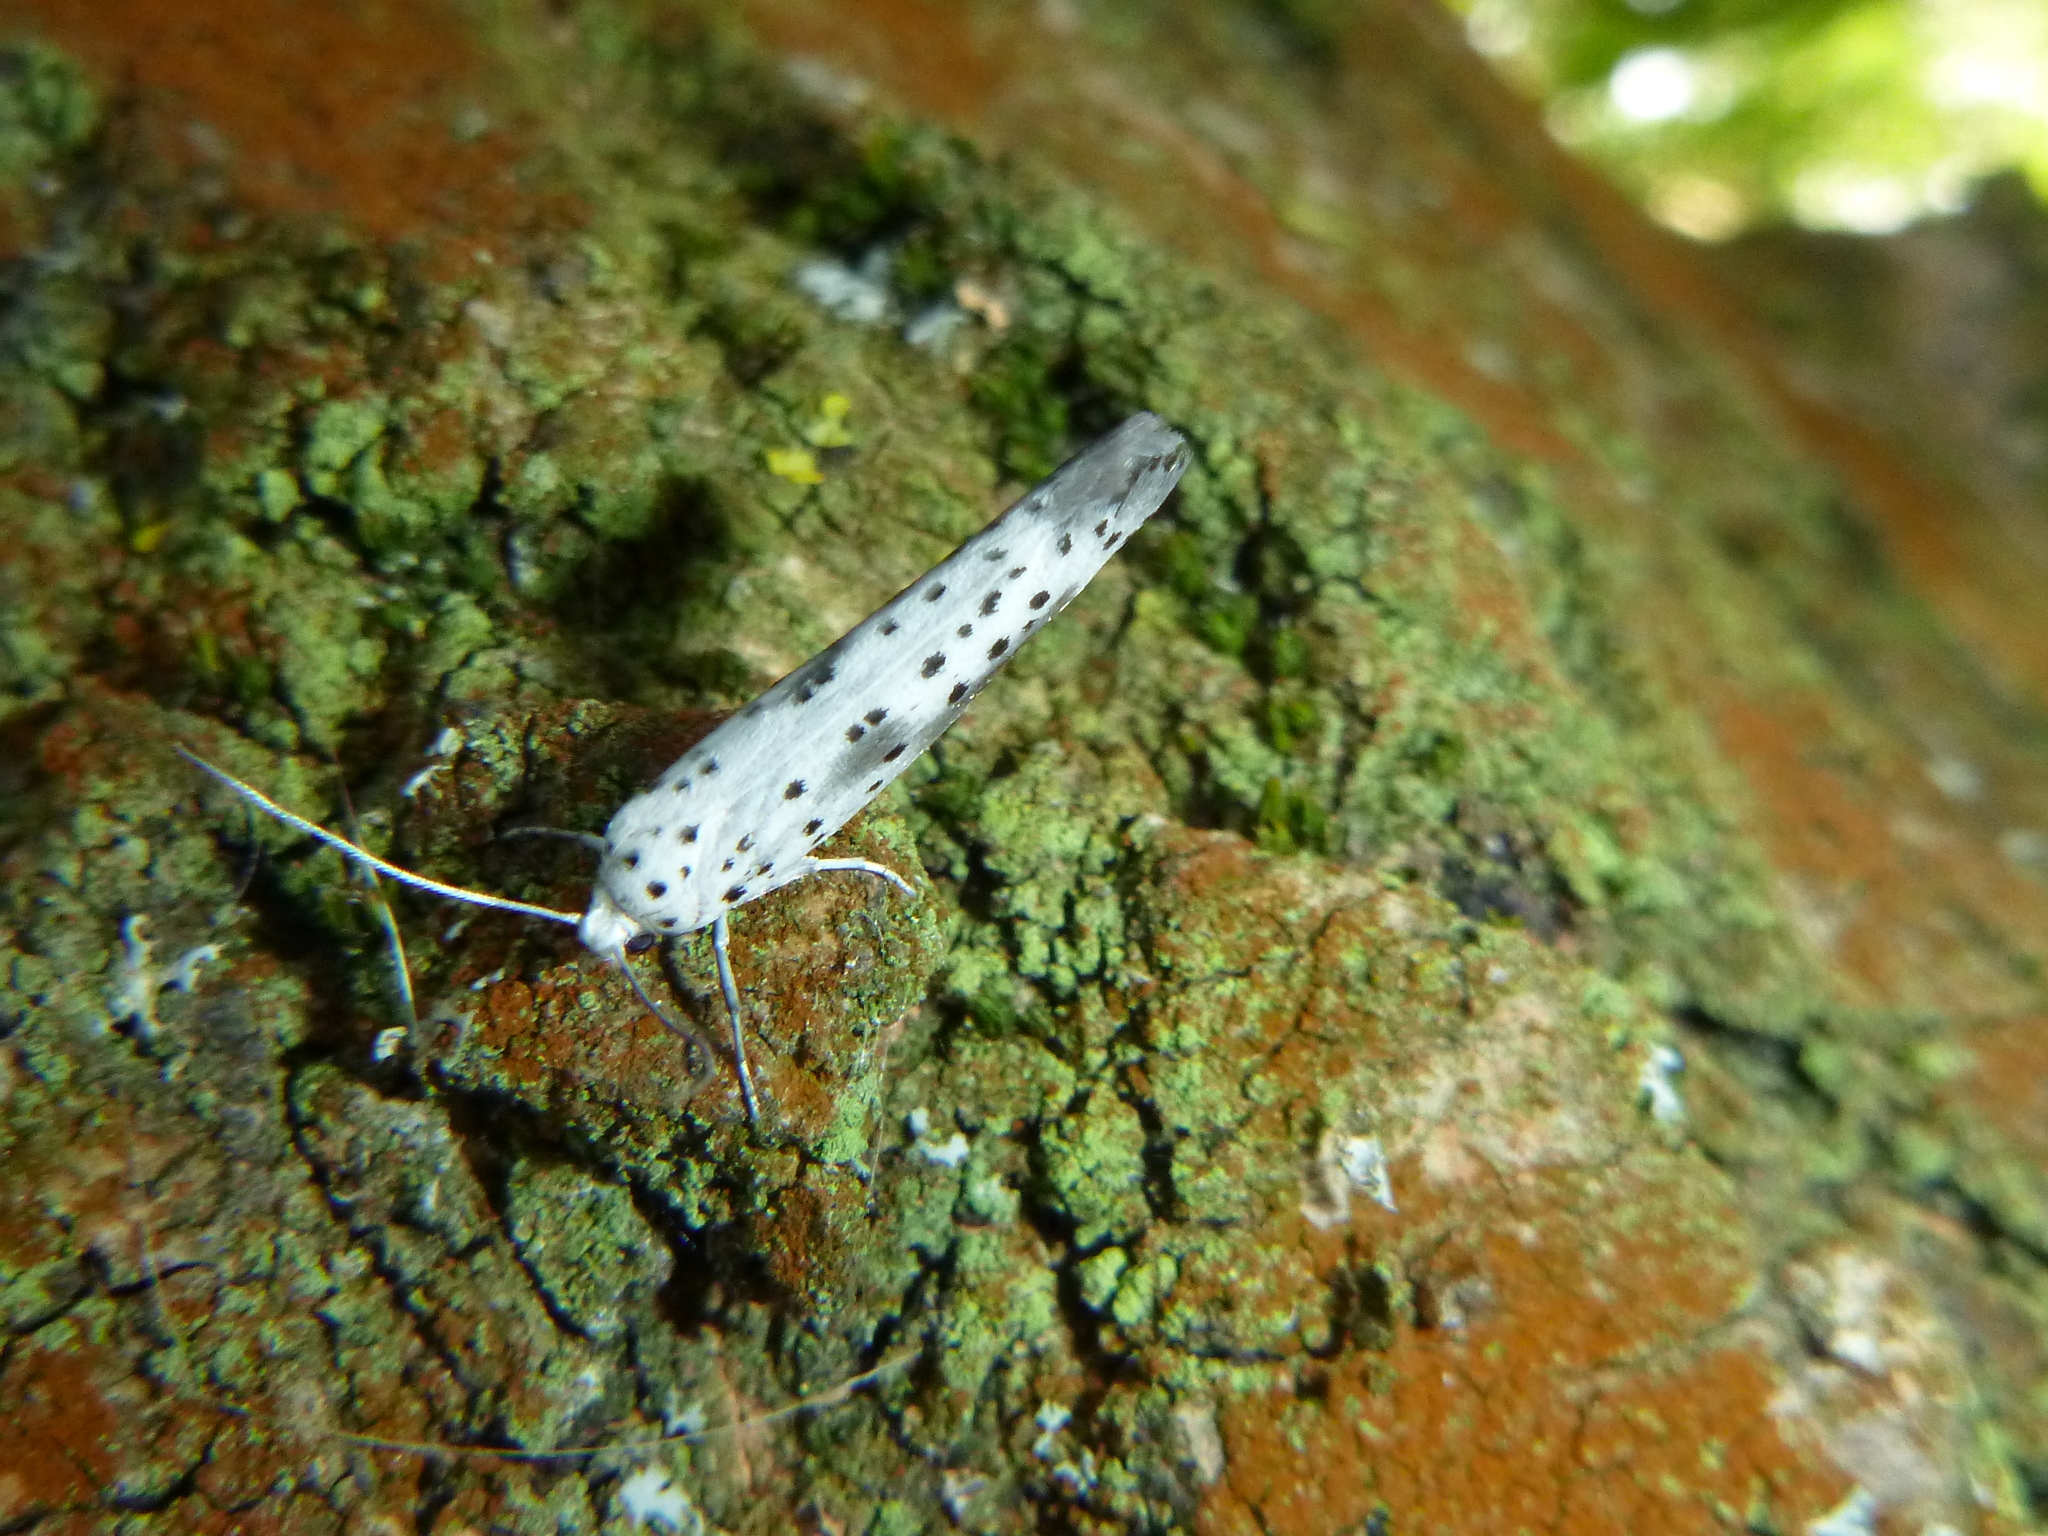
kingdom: Animalia
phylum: Arthropoda
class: Insecta
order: Lepidoptera
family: Yponomeutidae
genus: Yponomeuta
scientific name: Yponomeuta irrorella
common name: Scarce ermine
